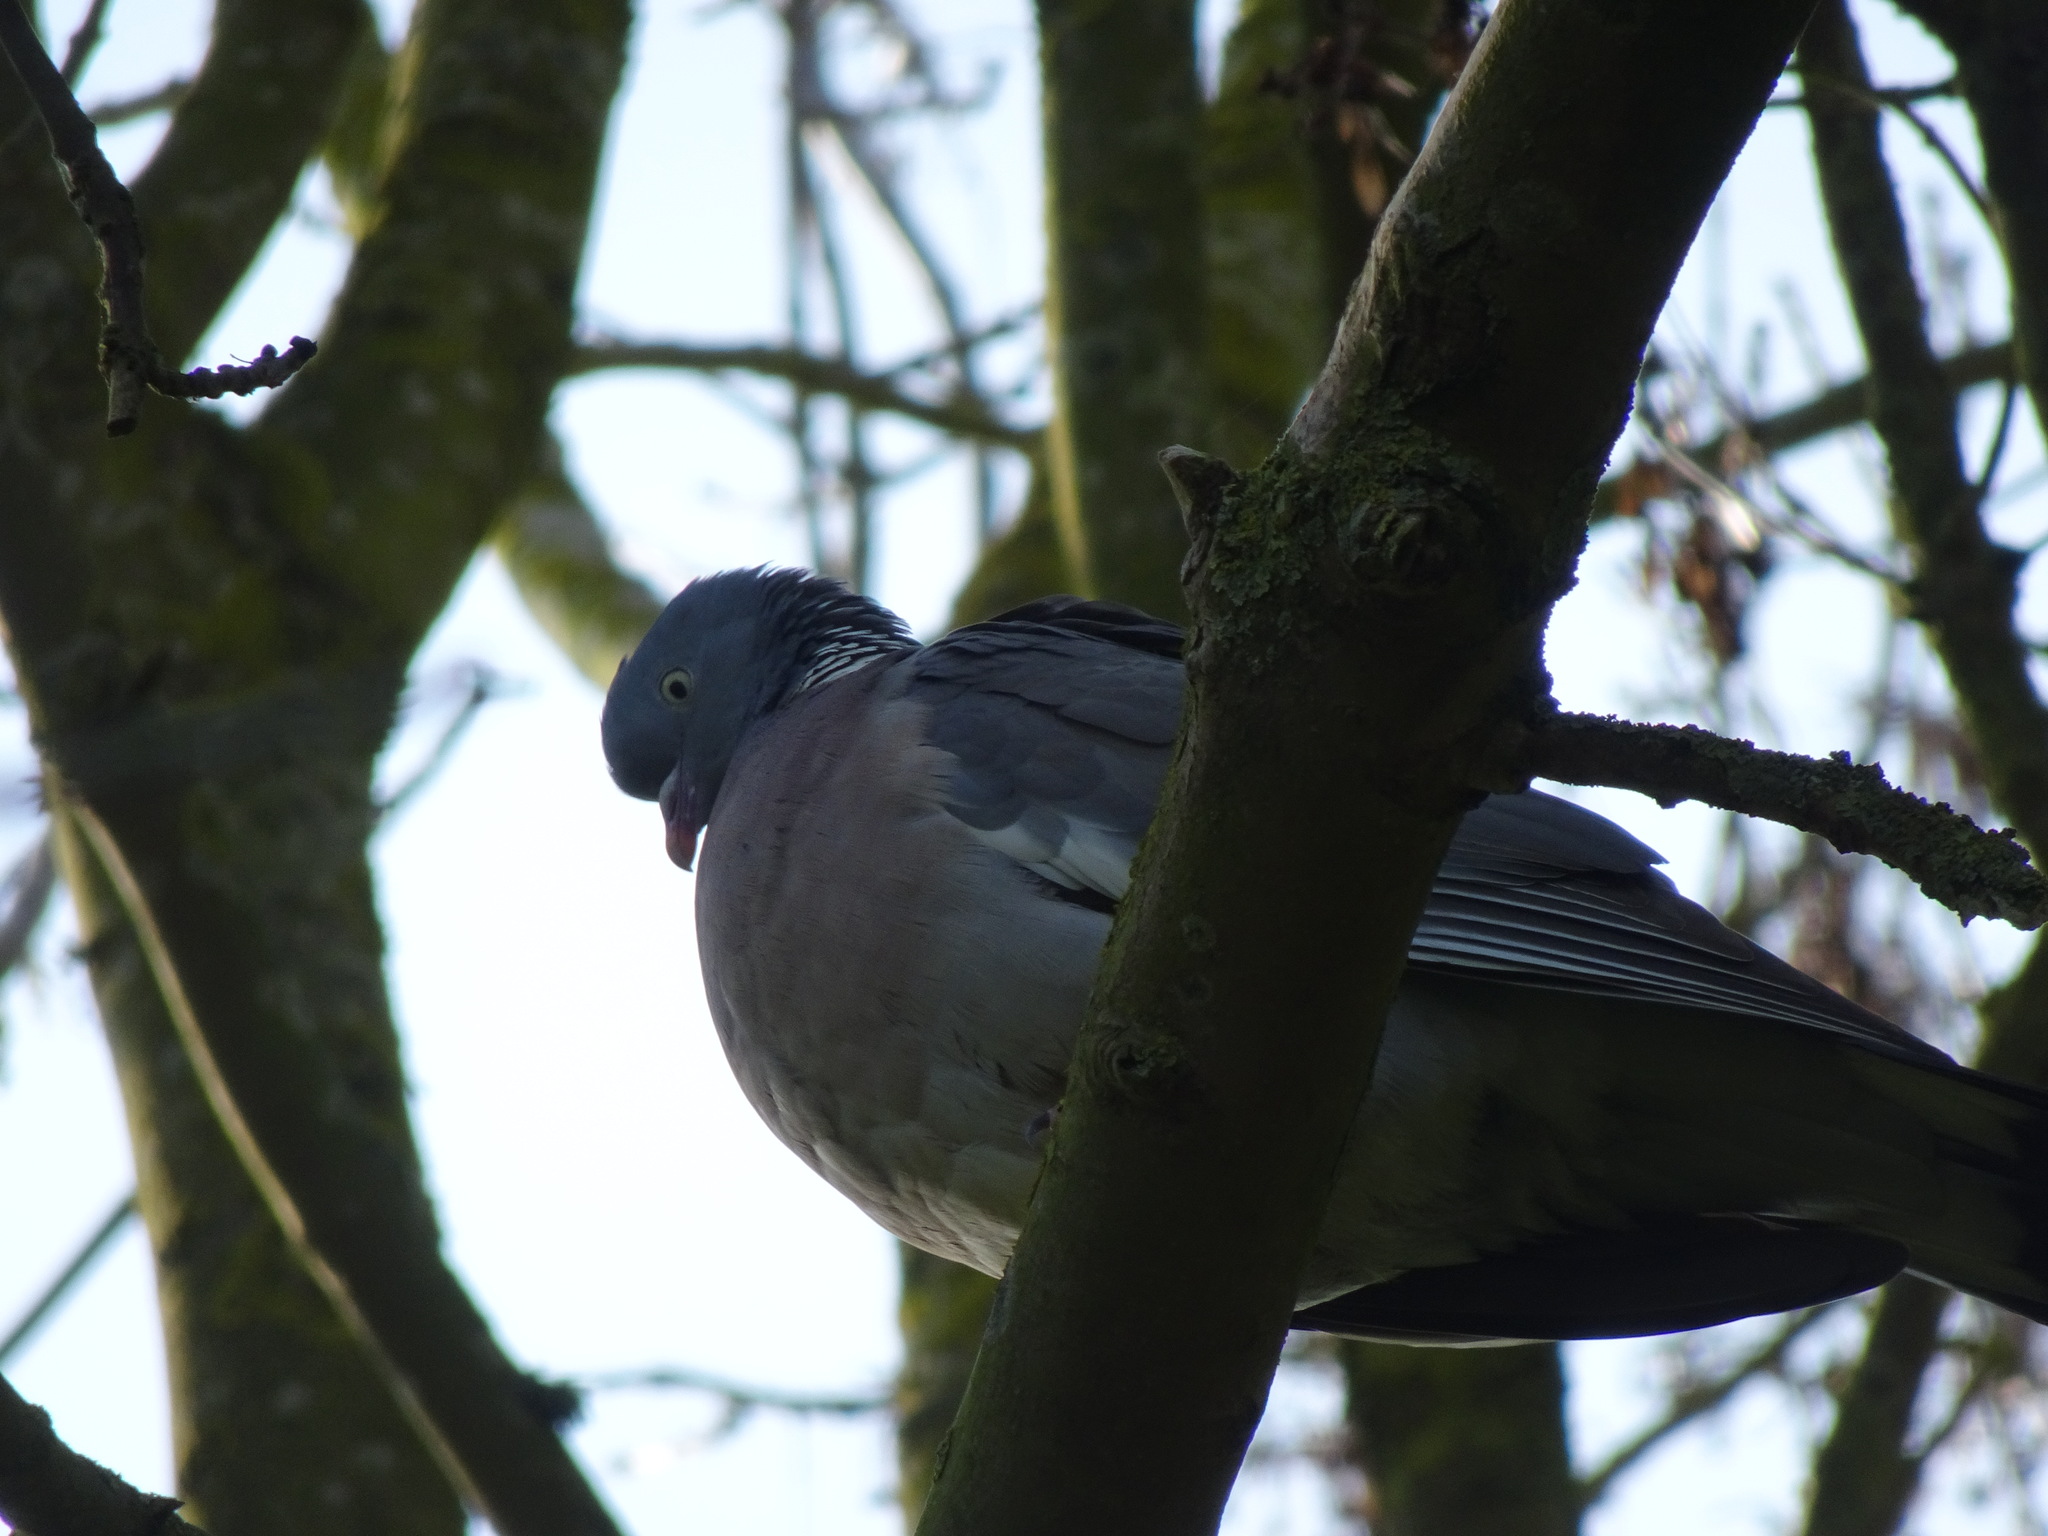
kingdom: Animalia
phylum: Chordata
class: Aves
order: Columbiformes
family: Columbidae
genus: Columba
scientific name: Columba palumbus
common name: Common wood pigeon
